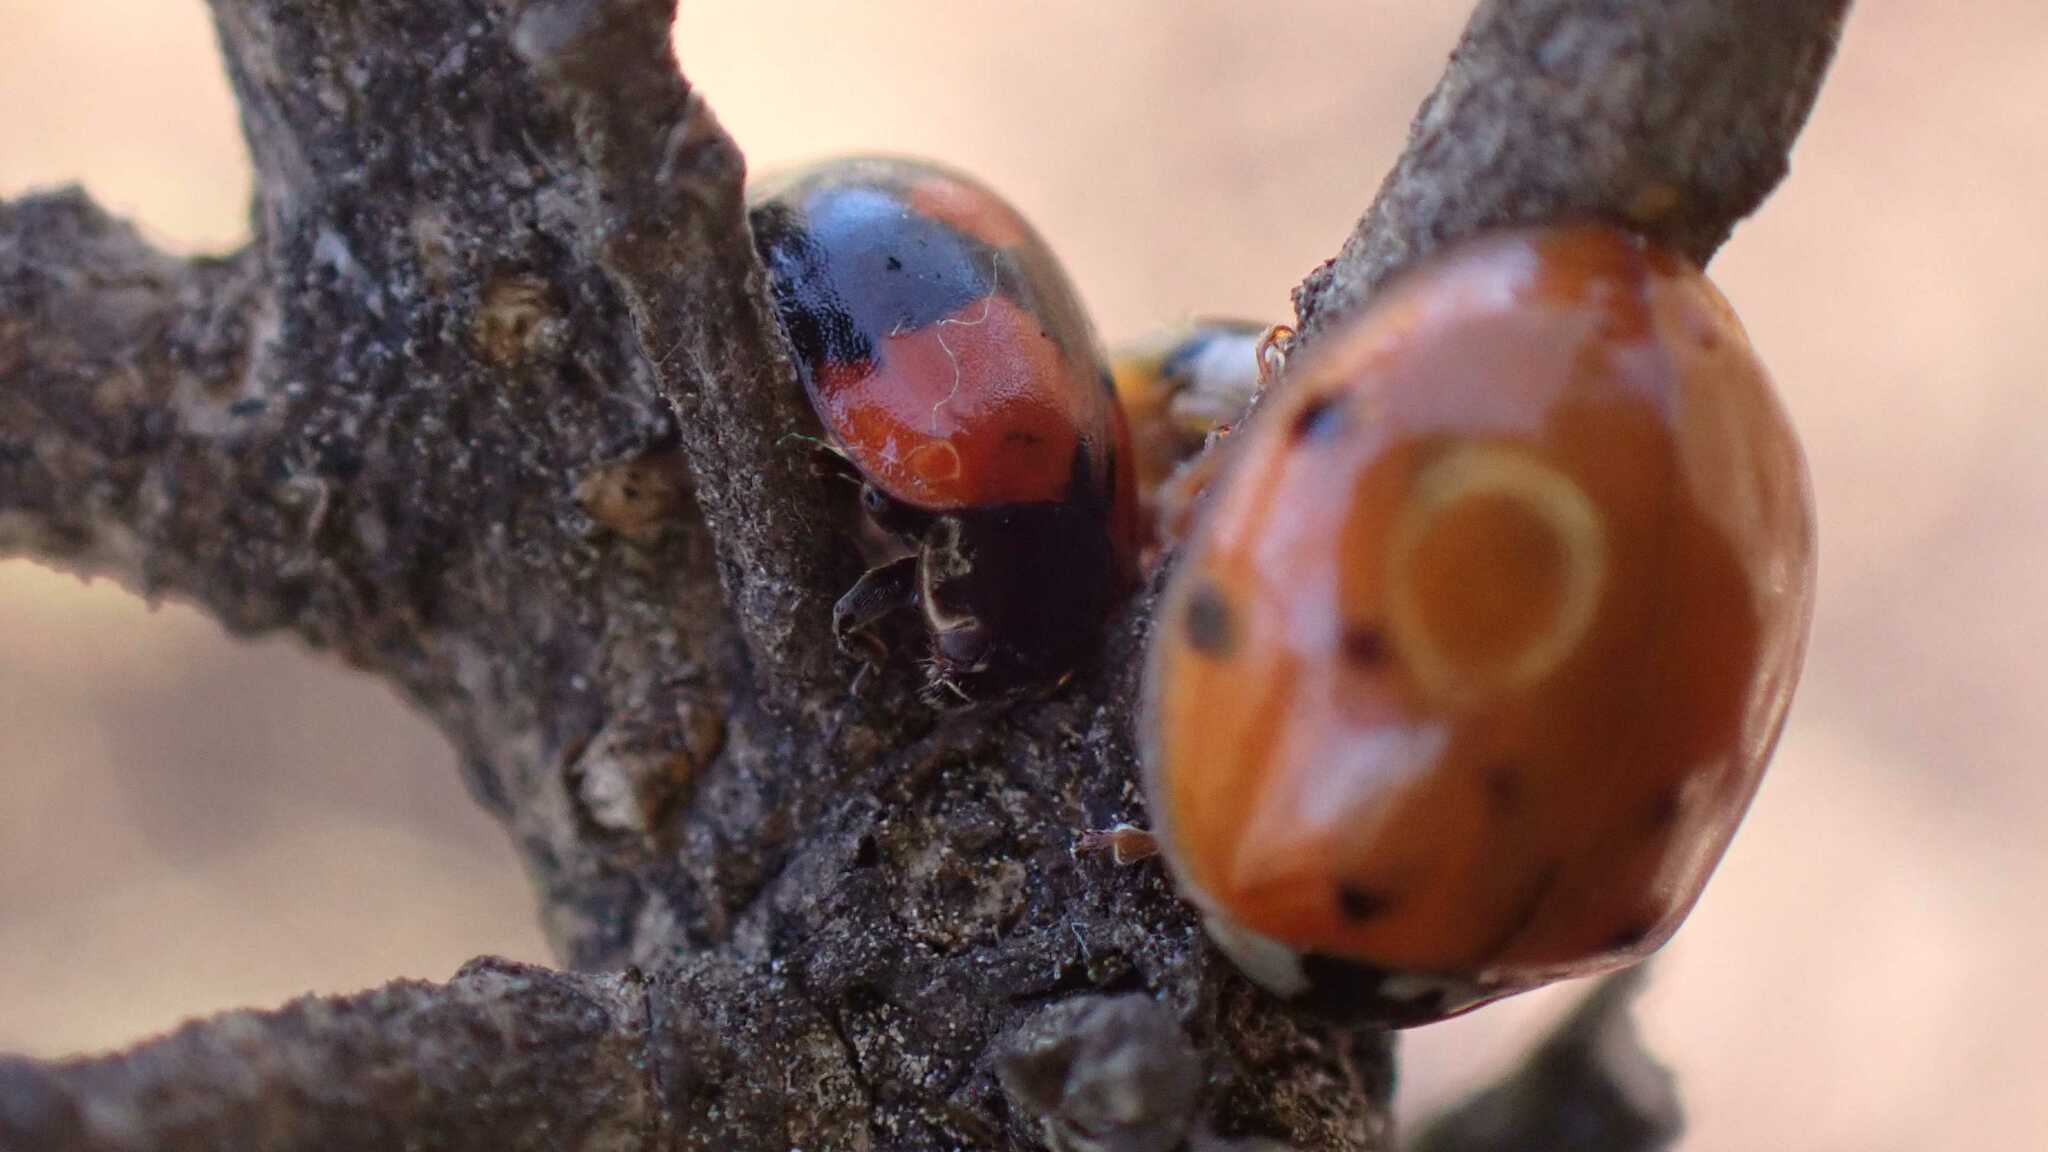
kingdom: Animalia
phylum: Arthropoda
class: Insecta
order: Coleoptera
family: Coccinellidae
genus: Adalia
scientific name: Adalia bipunctata
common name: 2-spot ladybird
